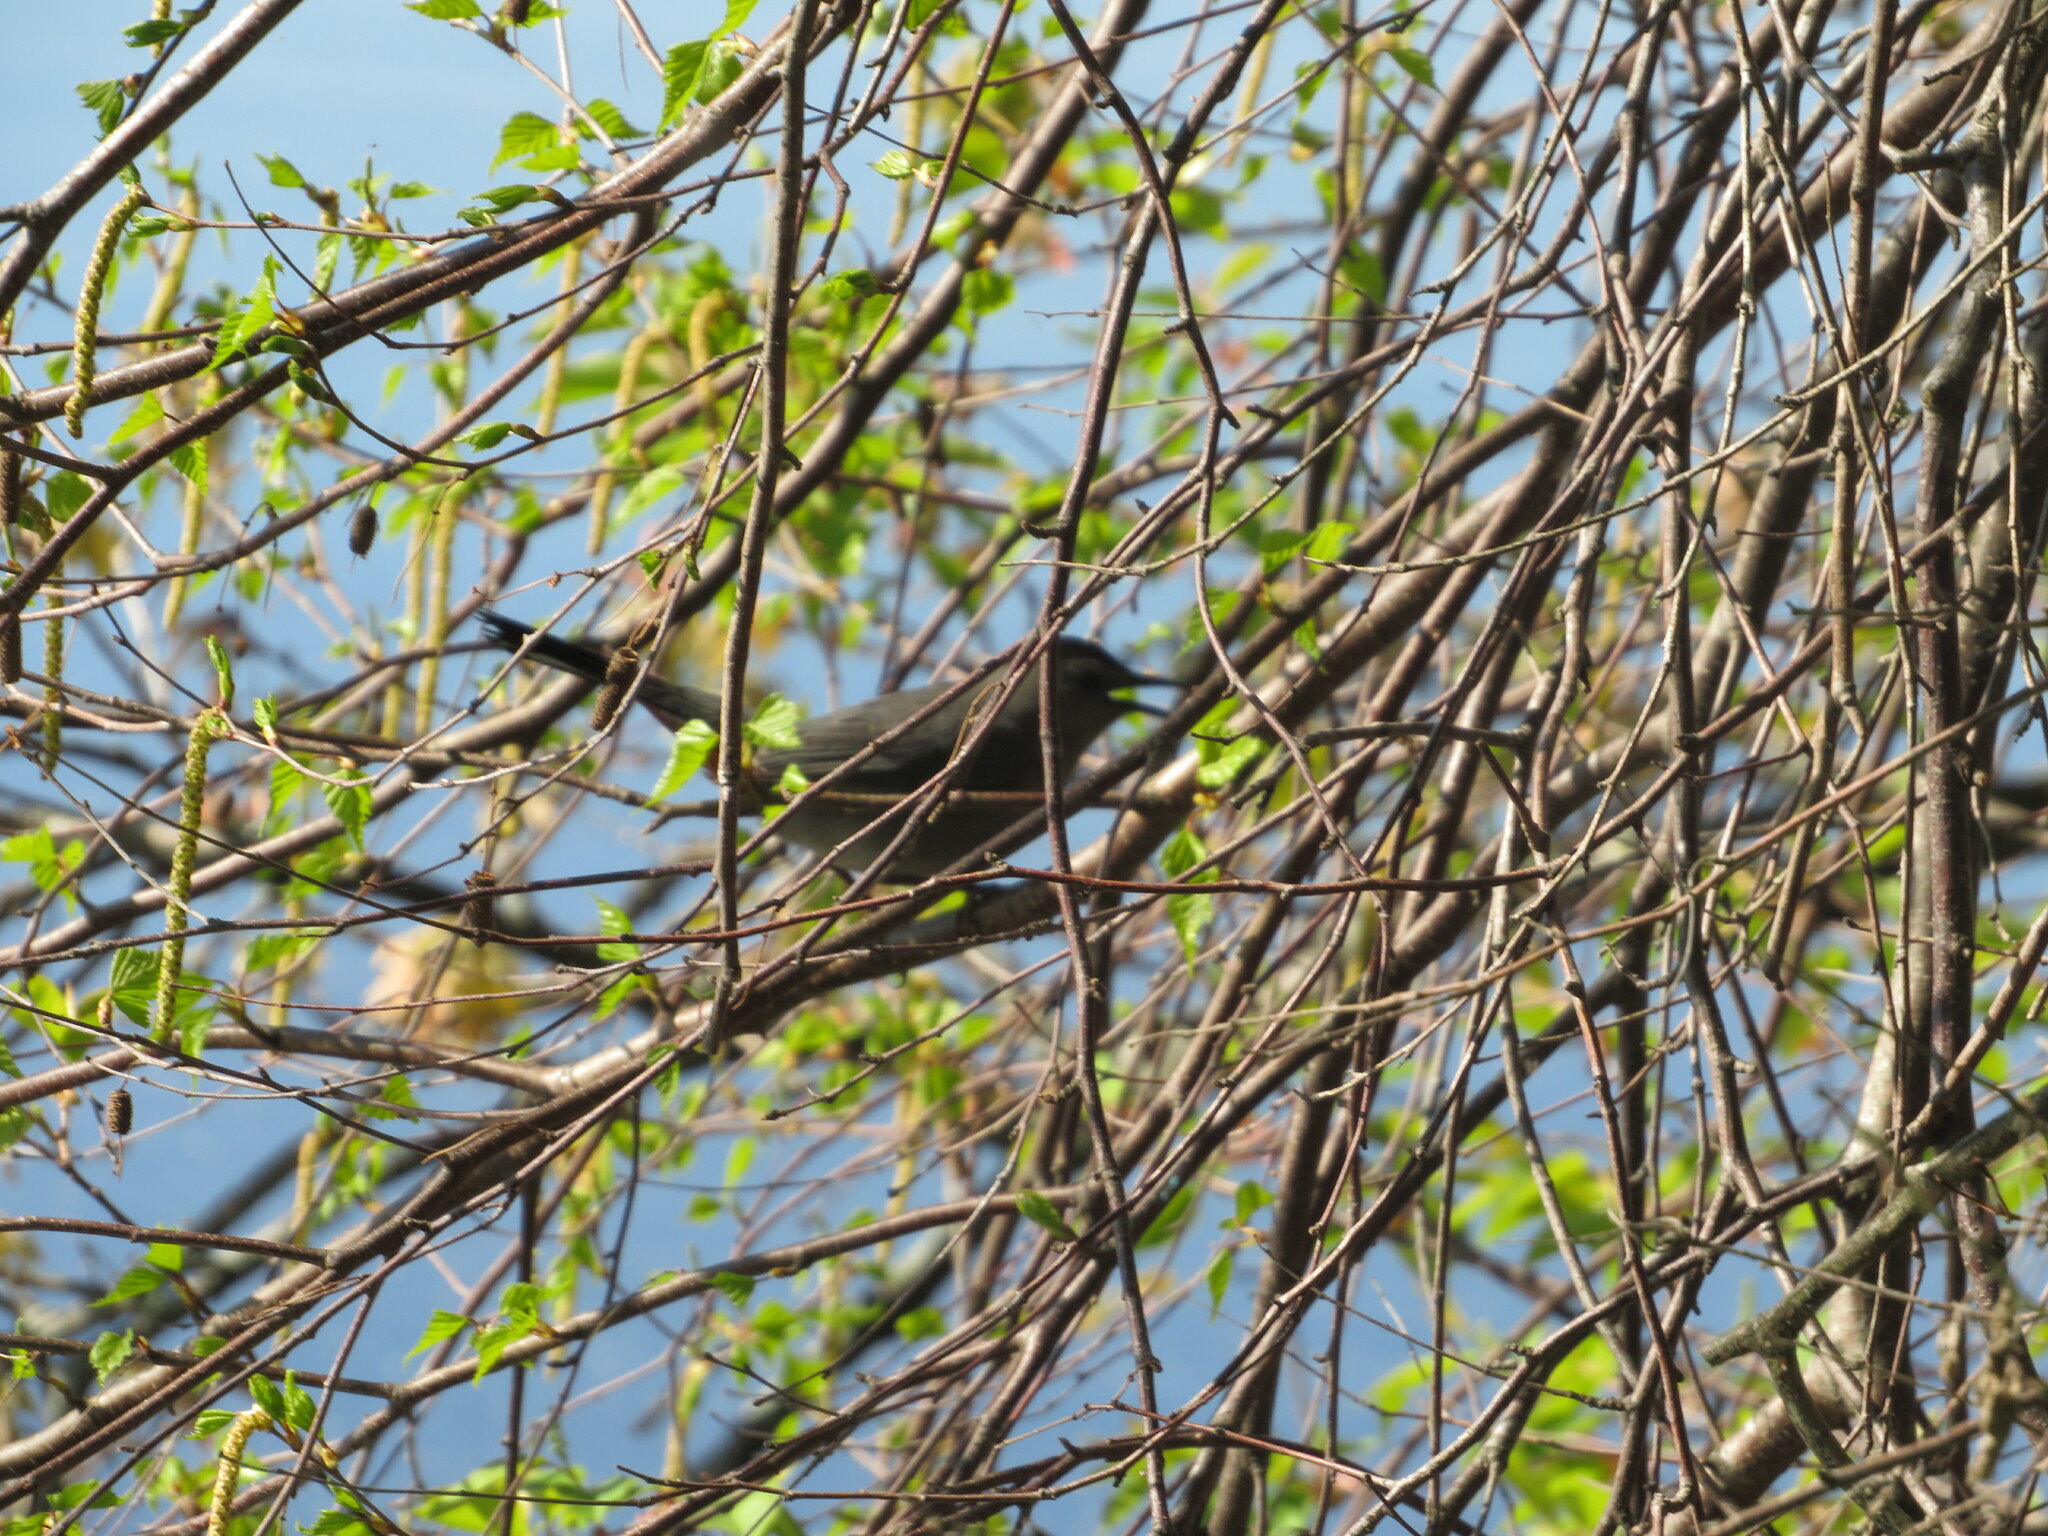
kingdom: Animalia
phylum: Chordata
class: Aves
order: Passeriformes
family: Mimidae
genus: Dumetella
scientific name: Dumetella carolinensis
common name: Gray catbird
